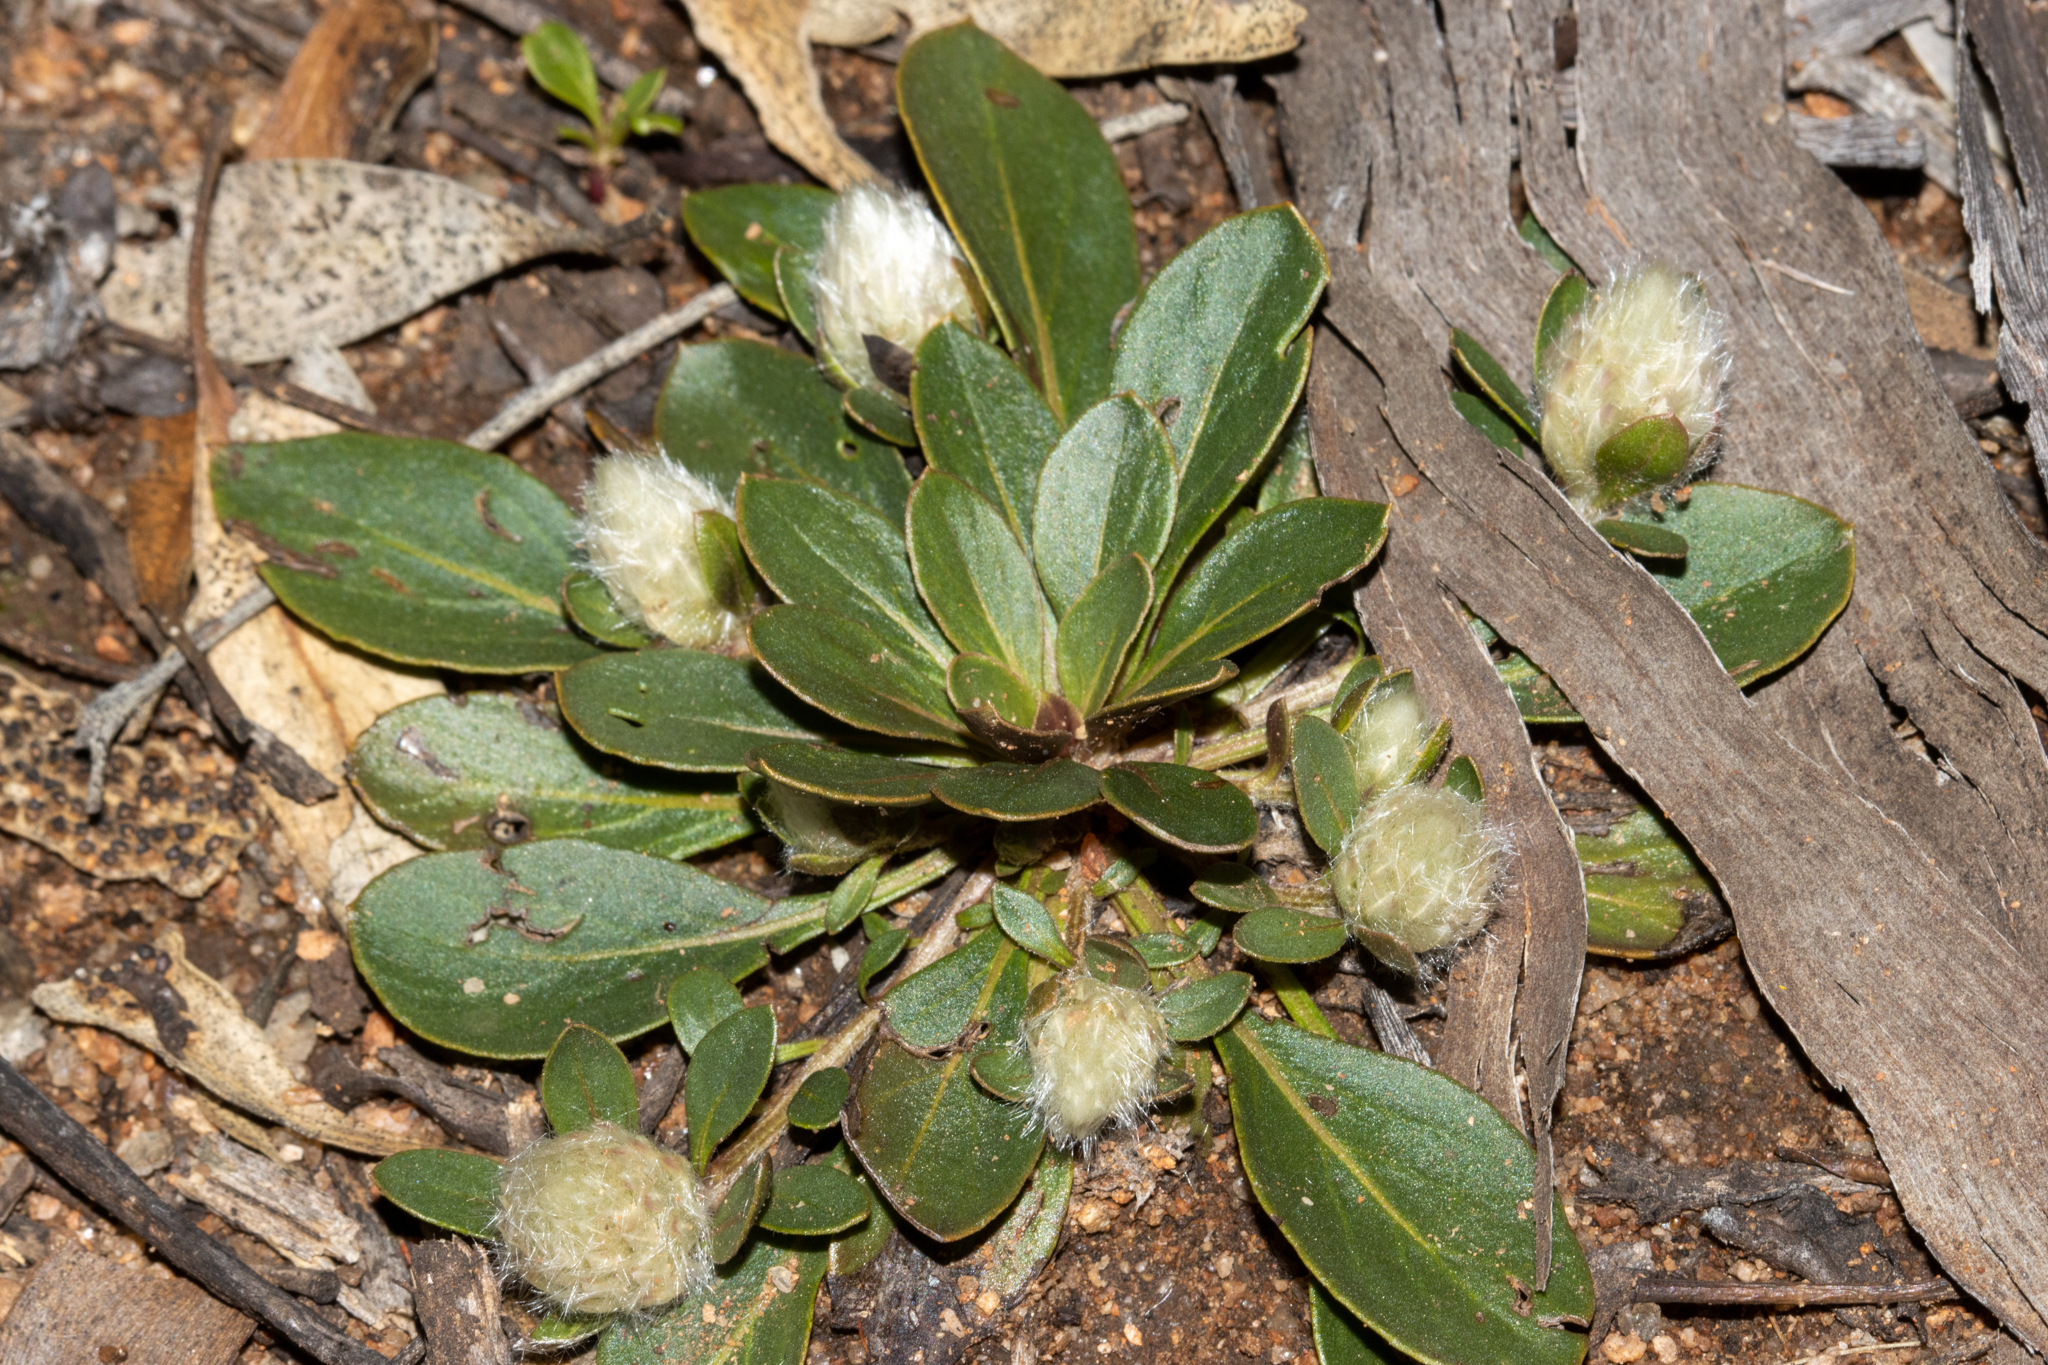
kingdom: Plantae
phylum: Tracheophyta
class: Magnoliopsida
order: Caryophyllales
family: Amaranthaceae
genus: Ptilotus
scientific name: Ptilotus holosericeus
